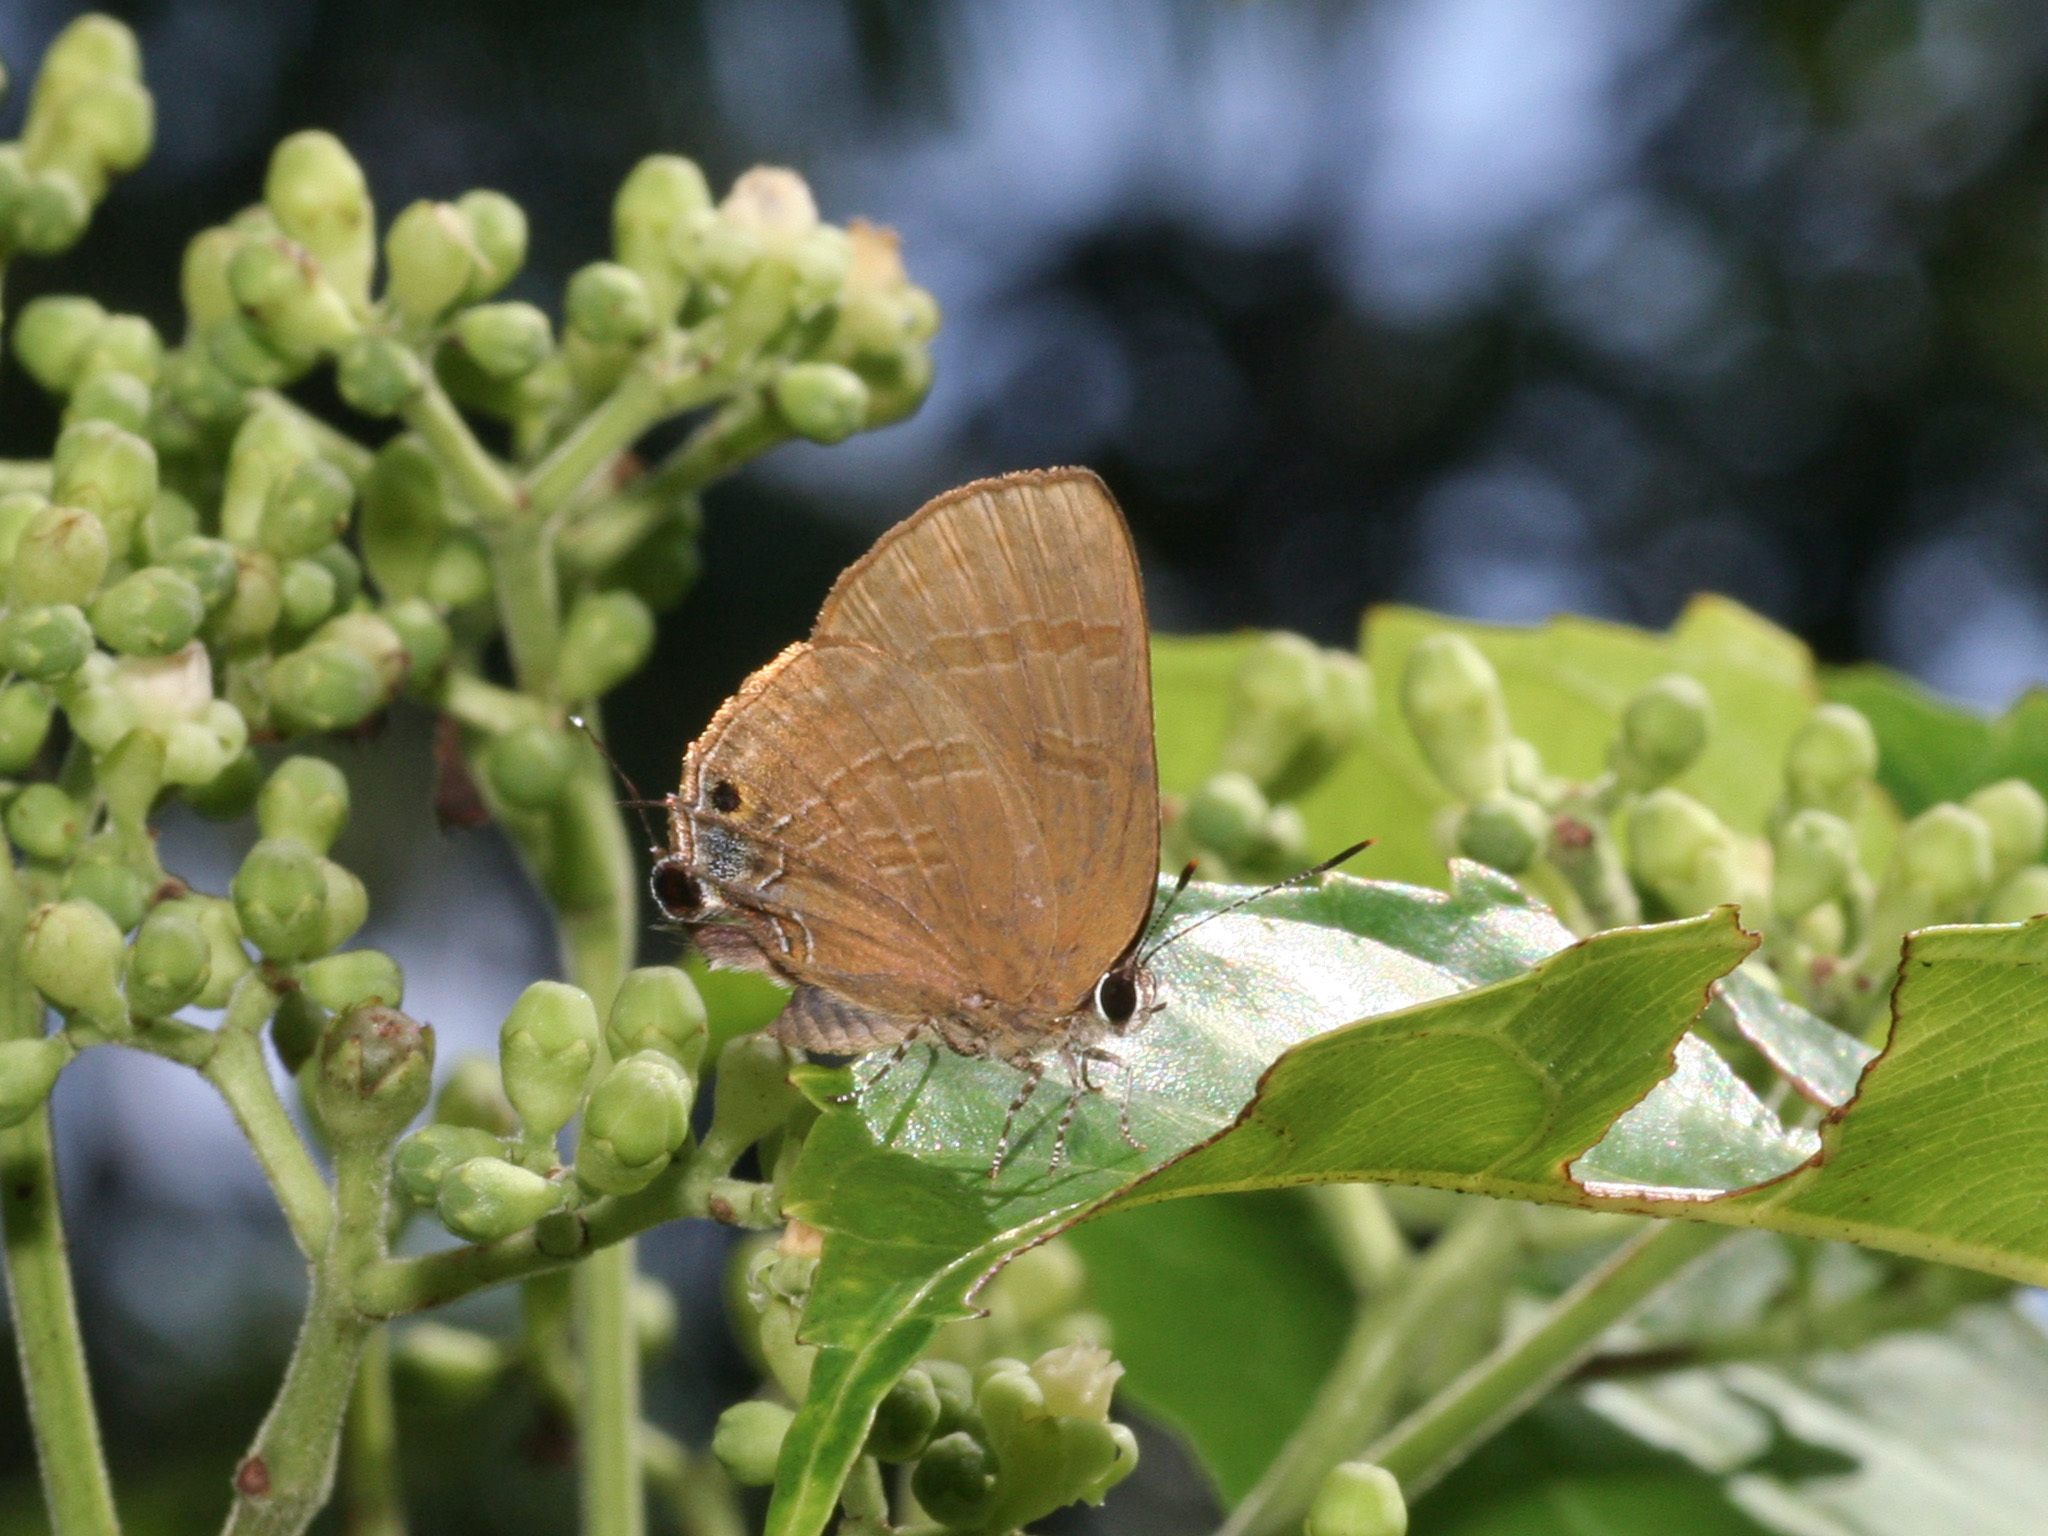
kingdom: Animalia
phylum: Arthropoda
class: Insecta
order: Lepidoptera
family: Lycaenidae
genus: Rapala
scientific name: Rapala varuna
